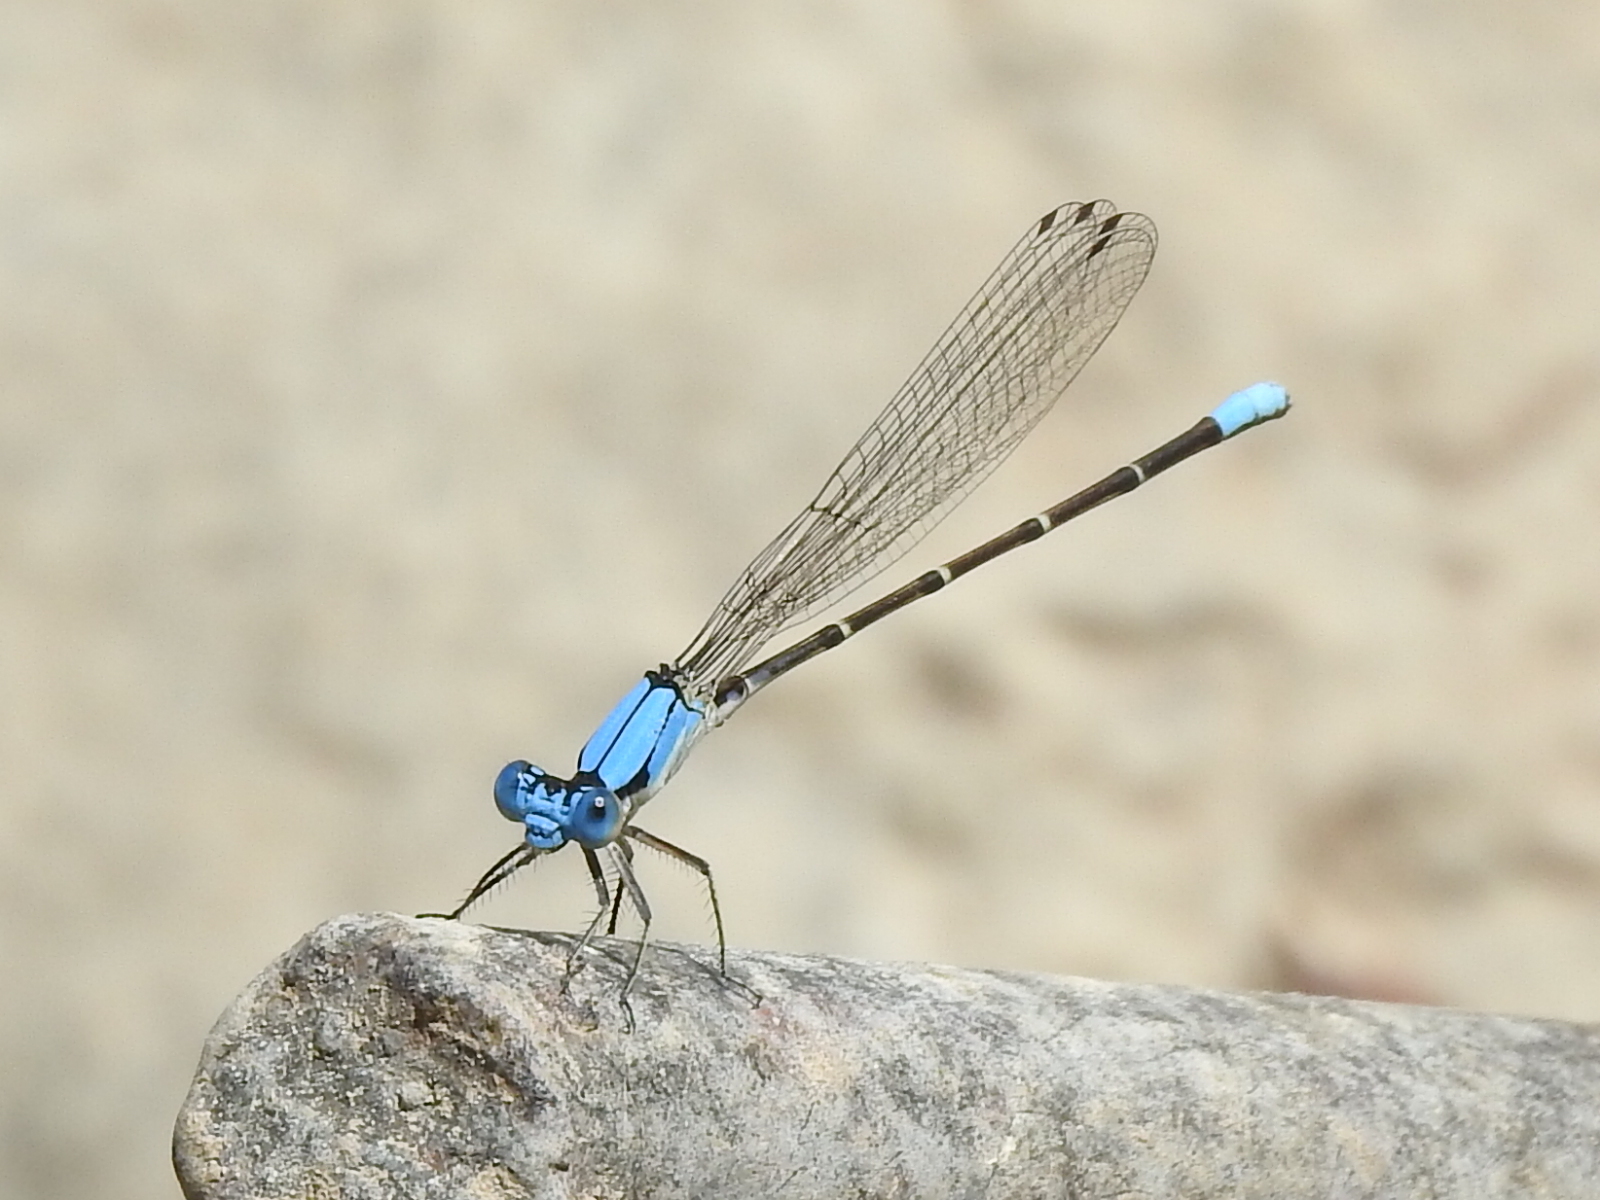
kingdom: Animalia
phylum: Arthropoda
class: Insecta
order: Odonata
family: Coenagrionidae
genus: Argia
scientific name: Argia apicalis
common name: Blue-fronted dancer
